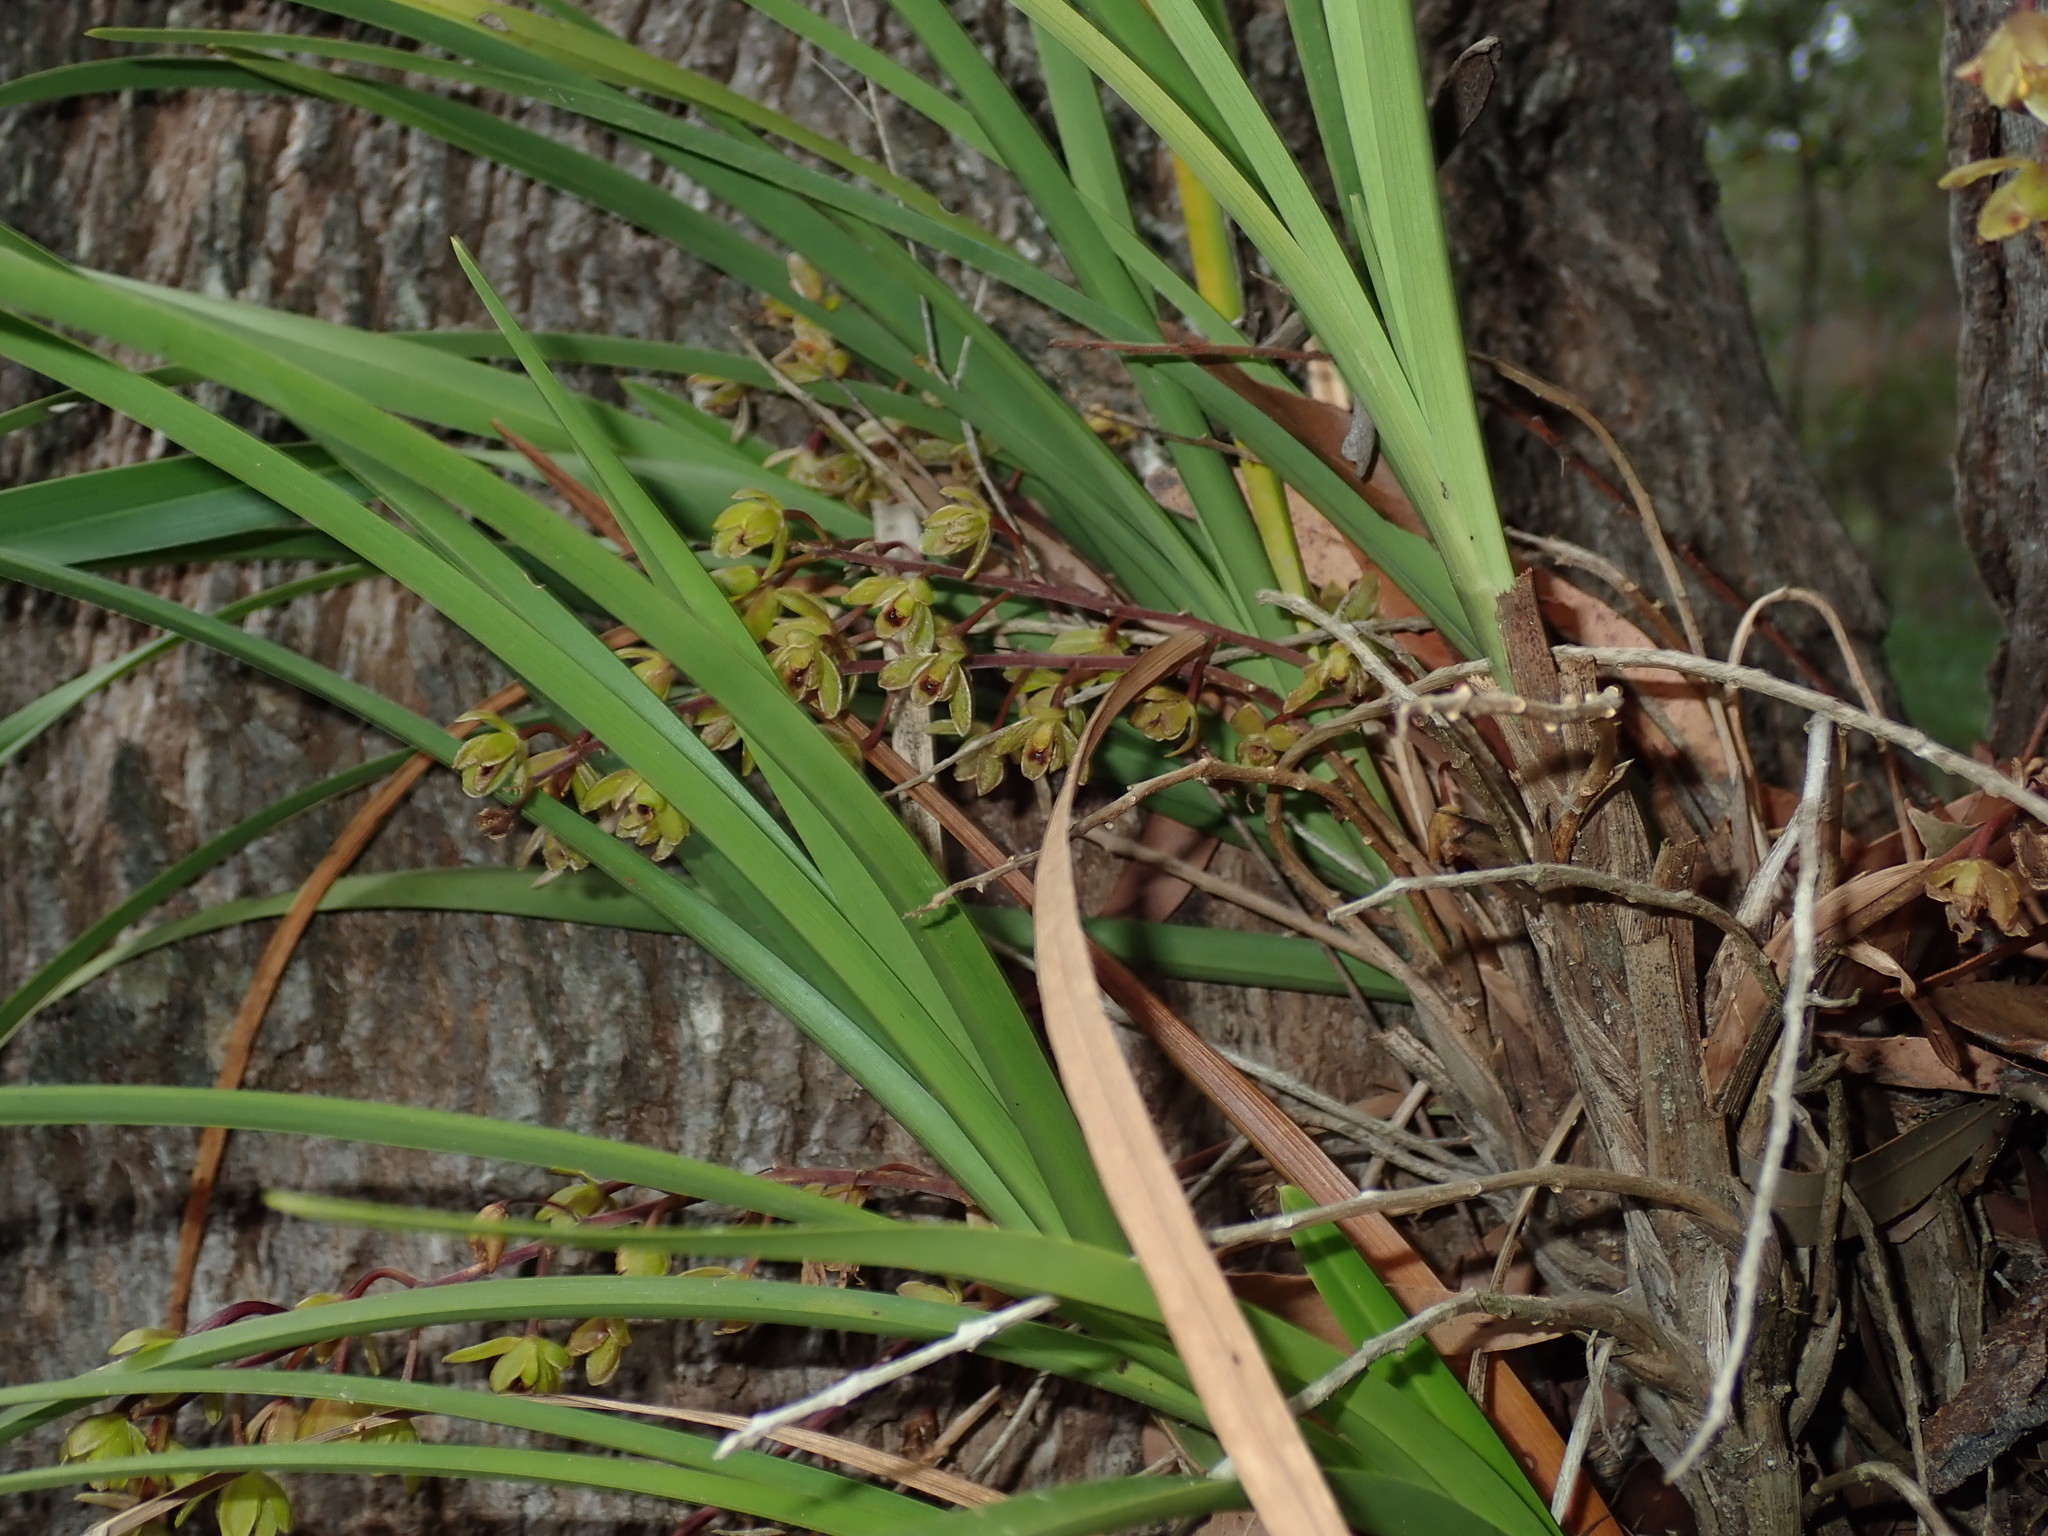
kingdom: Plantae
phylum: Tracheophyta
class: Liliopsida
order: Asparagales
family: Orchidaceae
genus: Cymbidium
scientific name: Cymbidium suave
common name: Snake orchid
